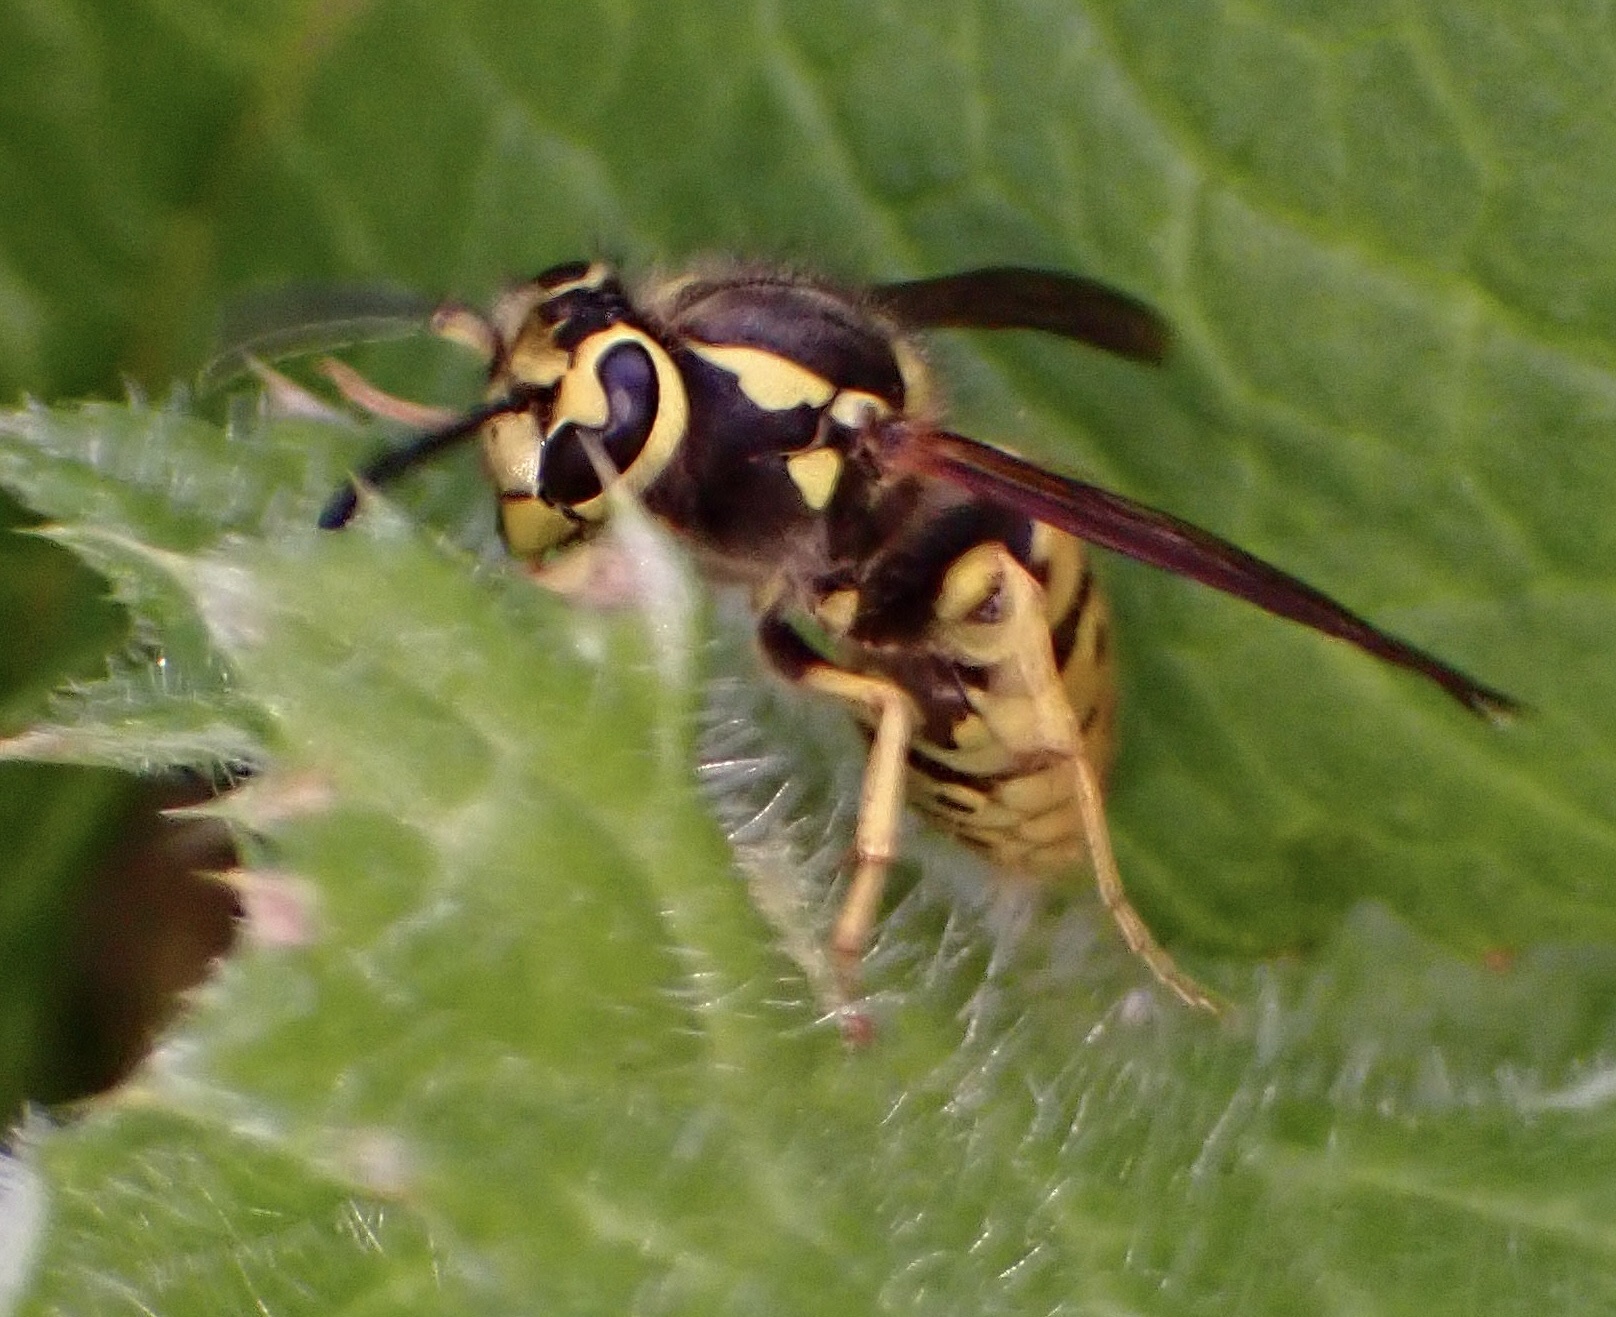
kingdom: Animalia
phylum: Arthropoda
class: Insecta
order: Hymenoptera
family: Vespidae
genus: Vespula
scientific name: Vespula pensylvanica
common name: Western yellowjacket
